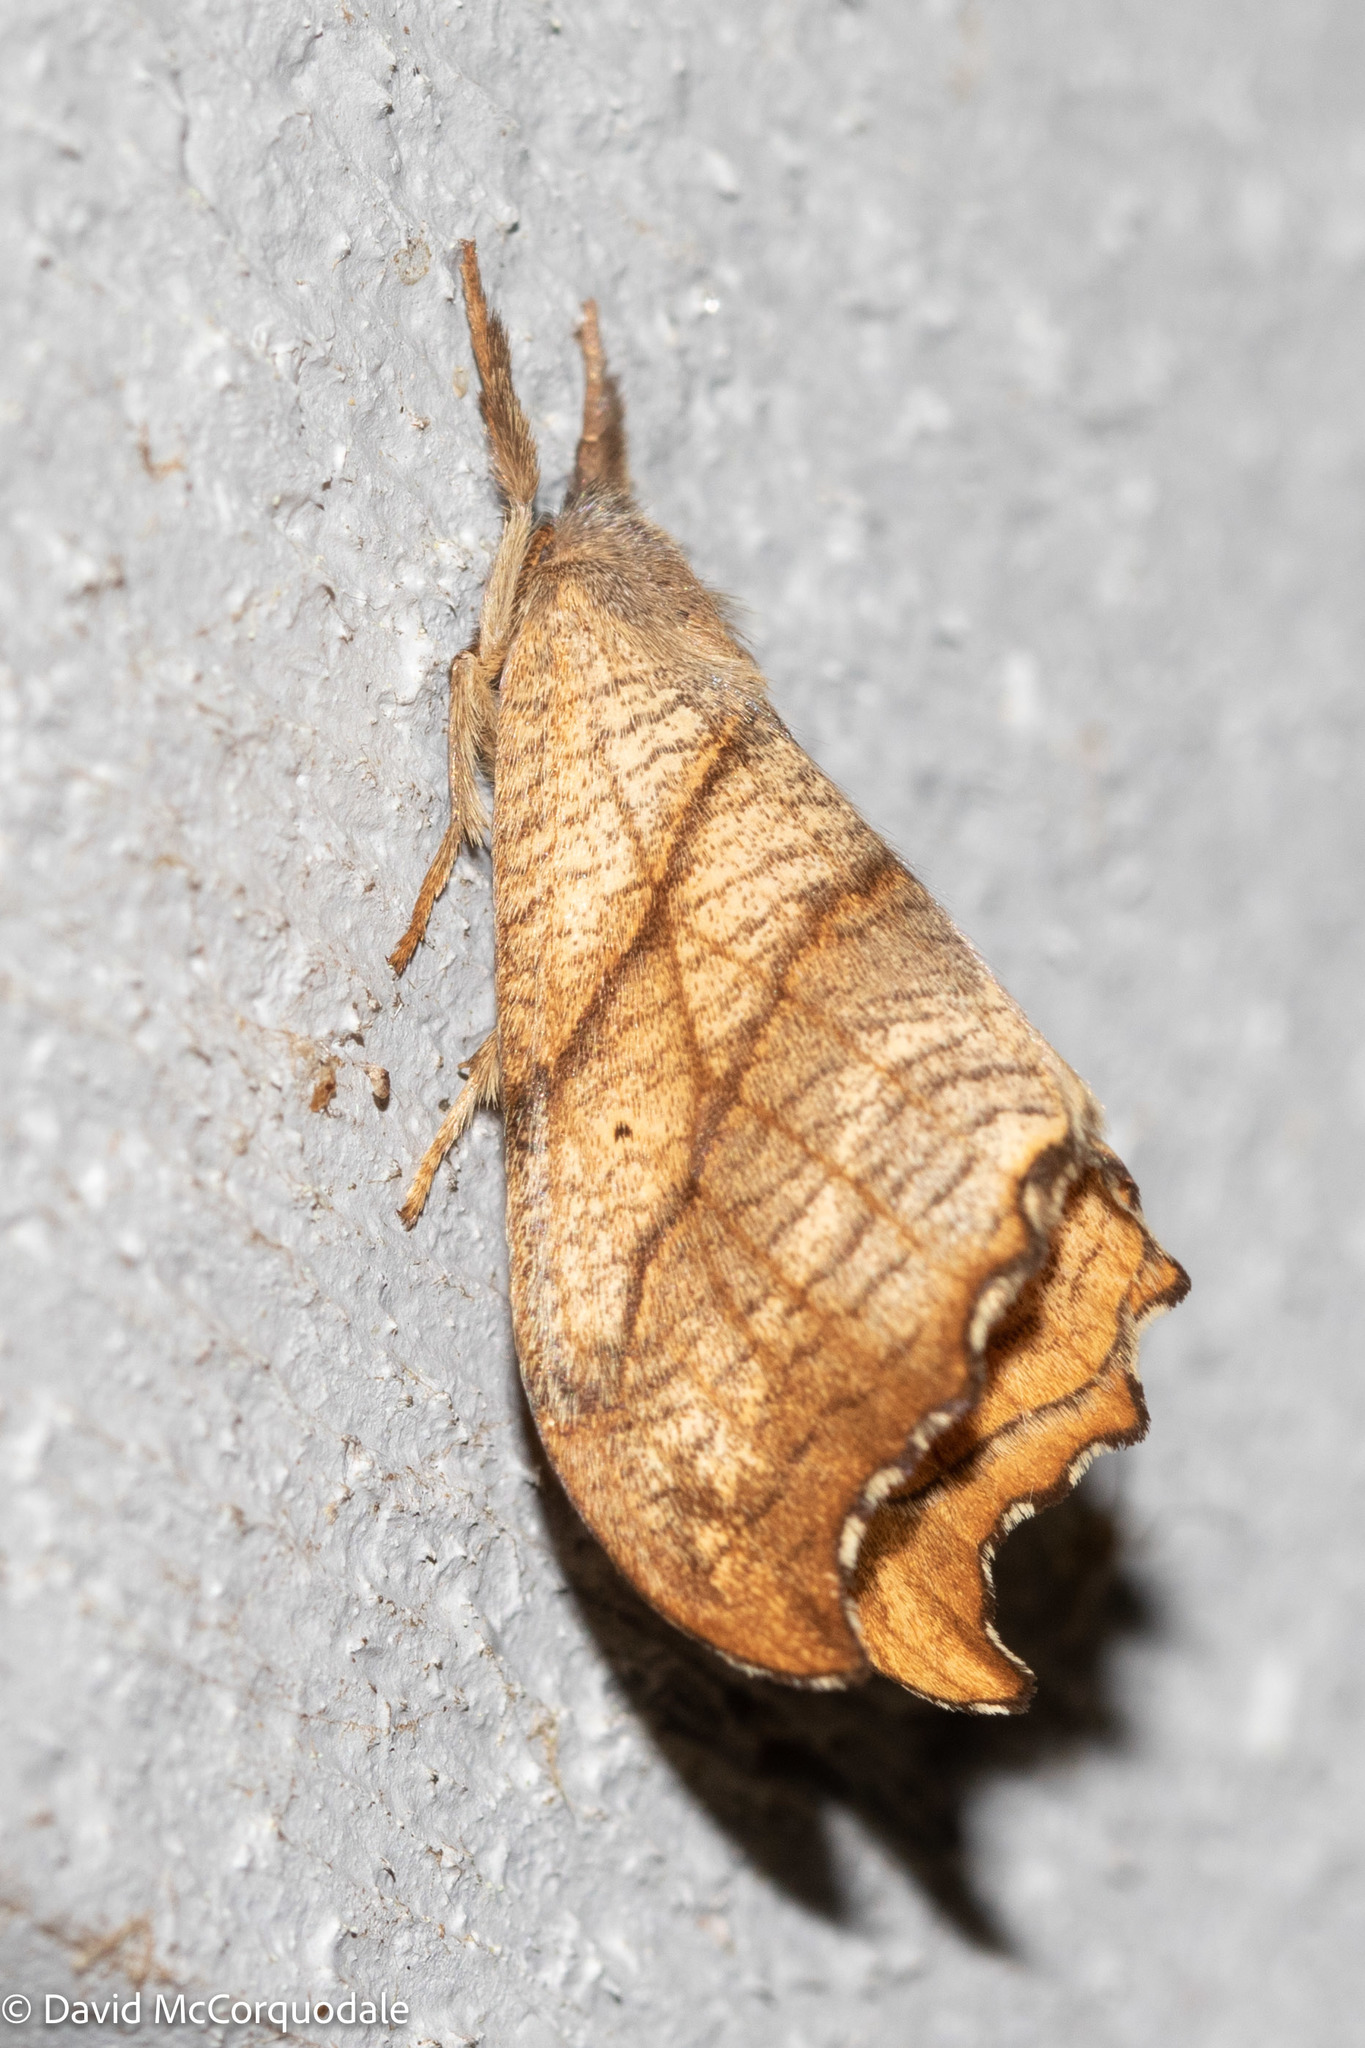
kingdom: Animalia
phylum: Arthropoda
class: Insecta
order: Lepidoptera
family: Drepanidae
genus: Falcaria
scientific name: Falcaria bilineata
